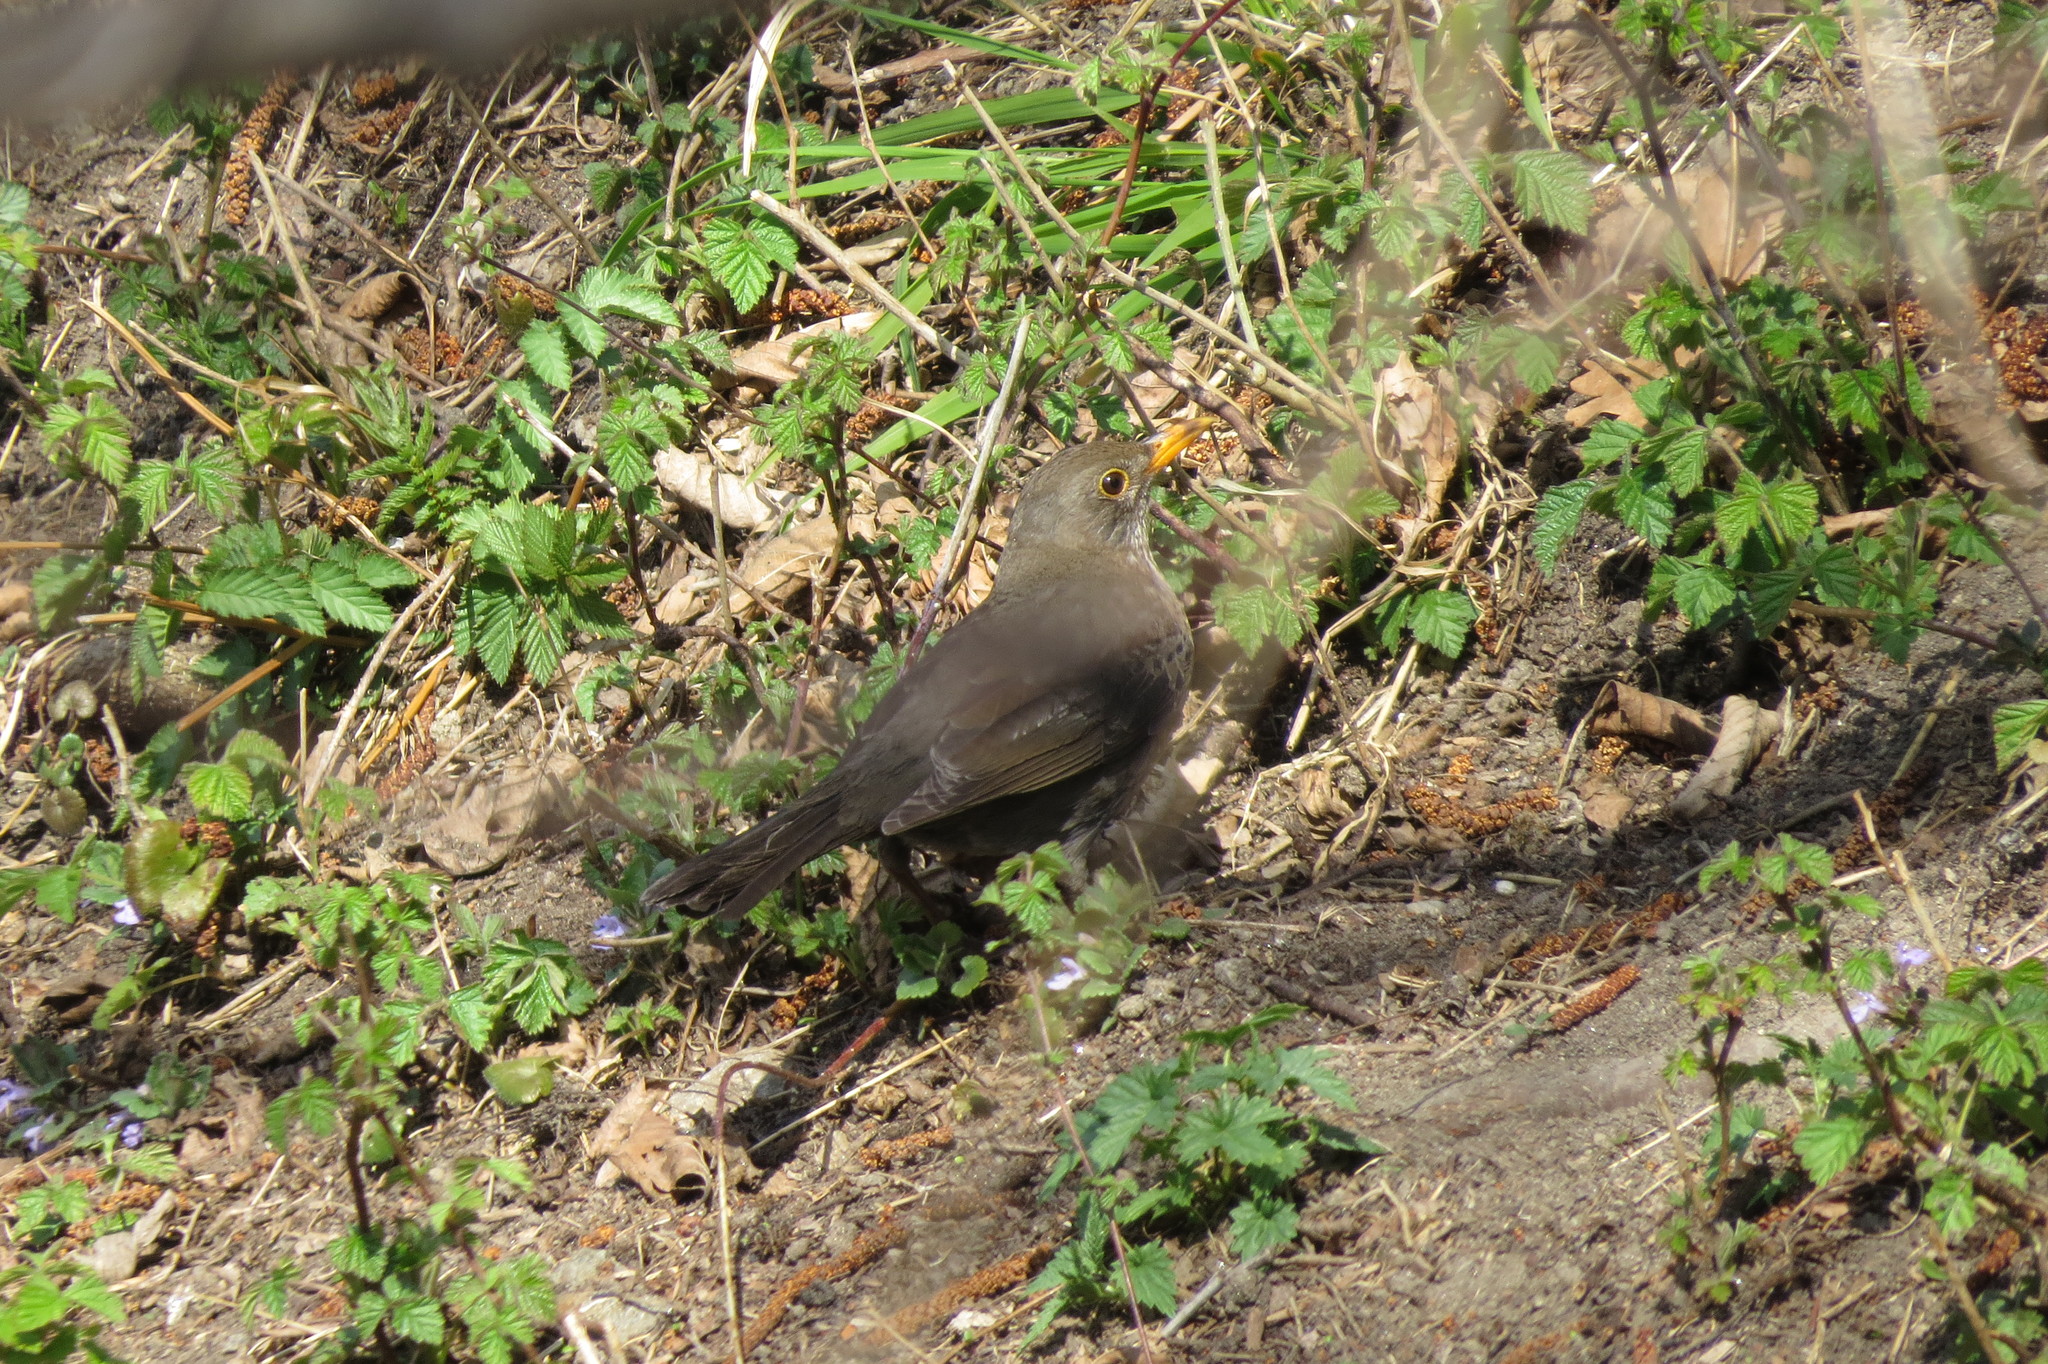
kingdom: Animalia
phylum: Chordata
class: Aves
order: Passeriformes
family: Turdidae
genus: Turdus
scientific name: Turdus merula
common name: Common blackbird
